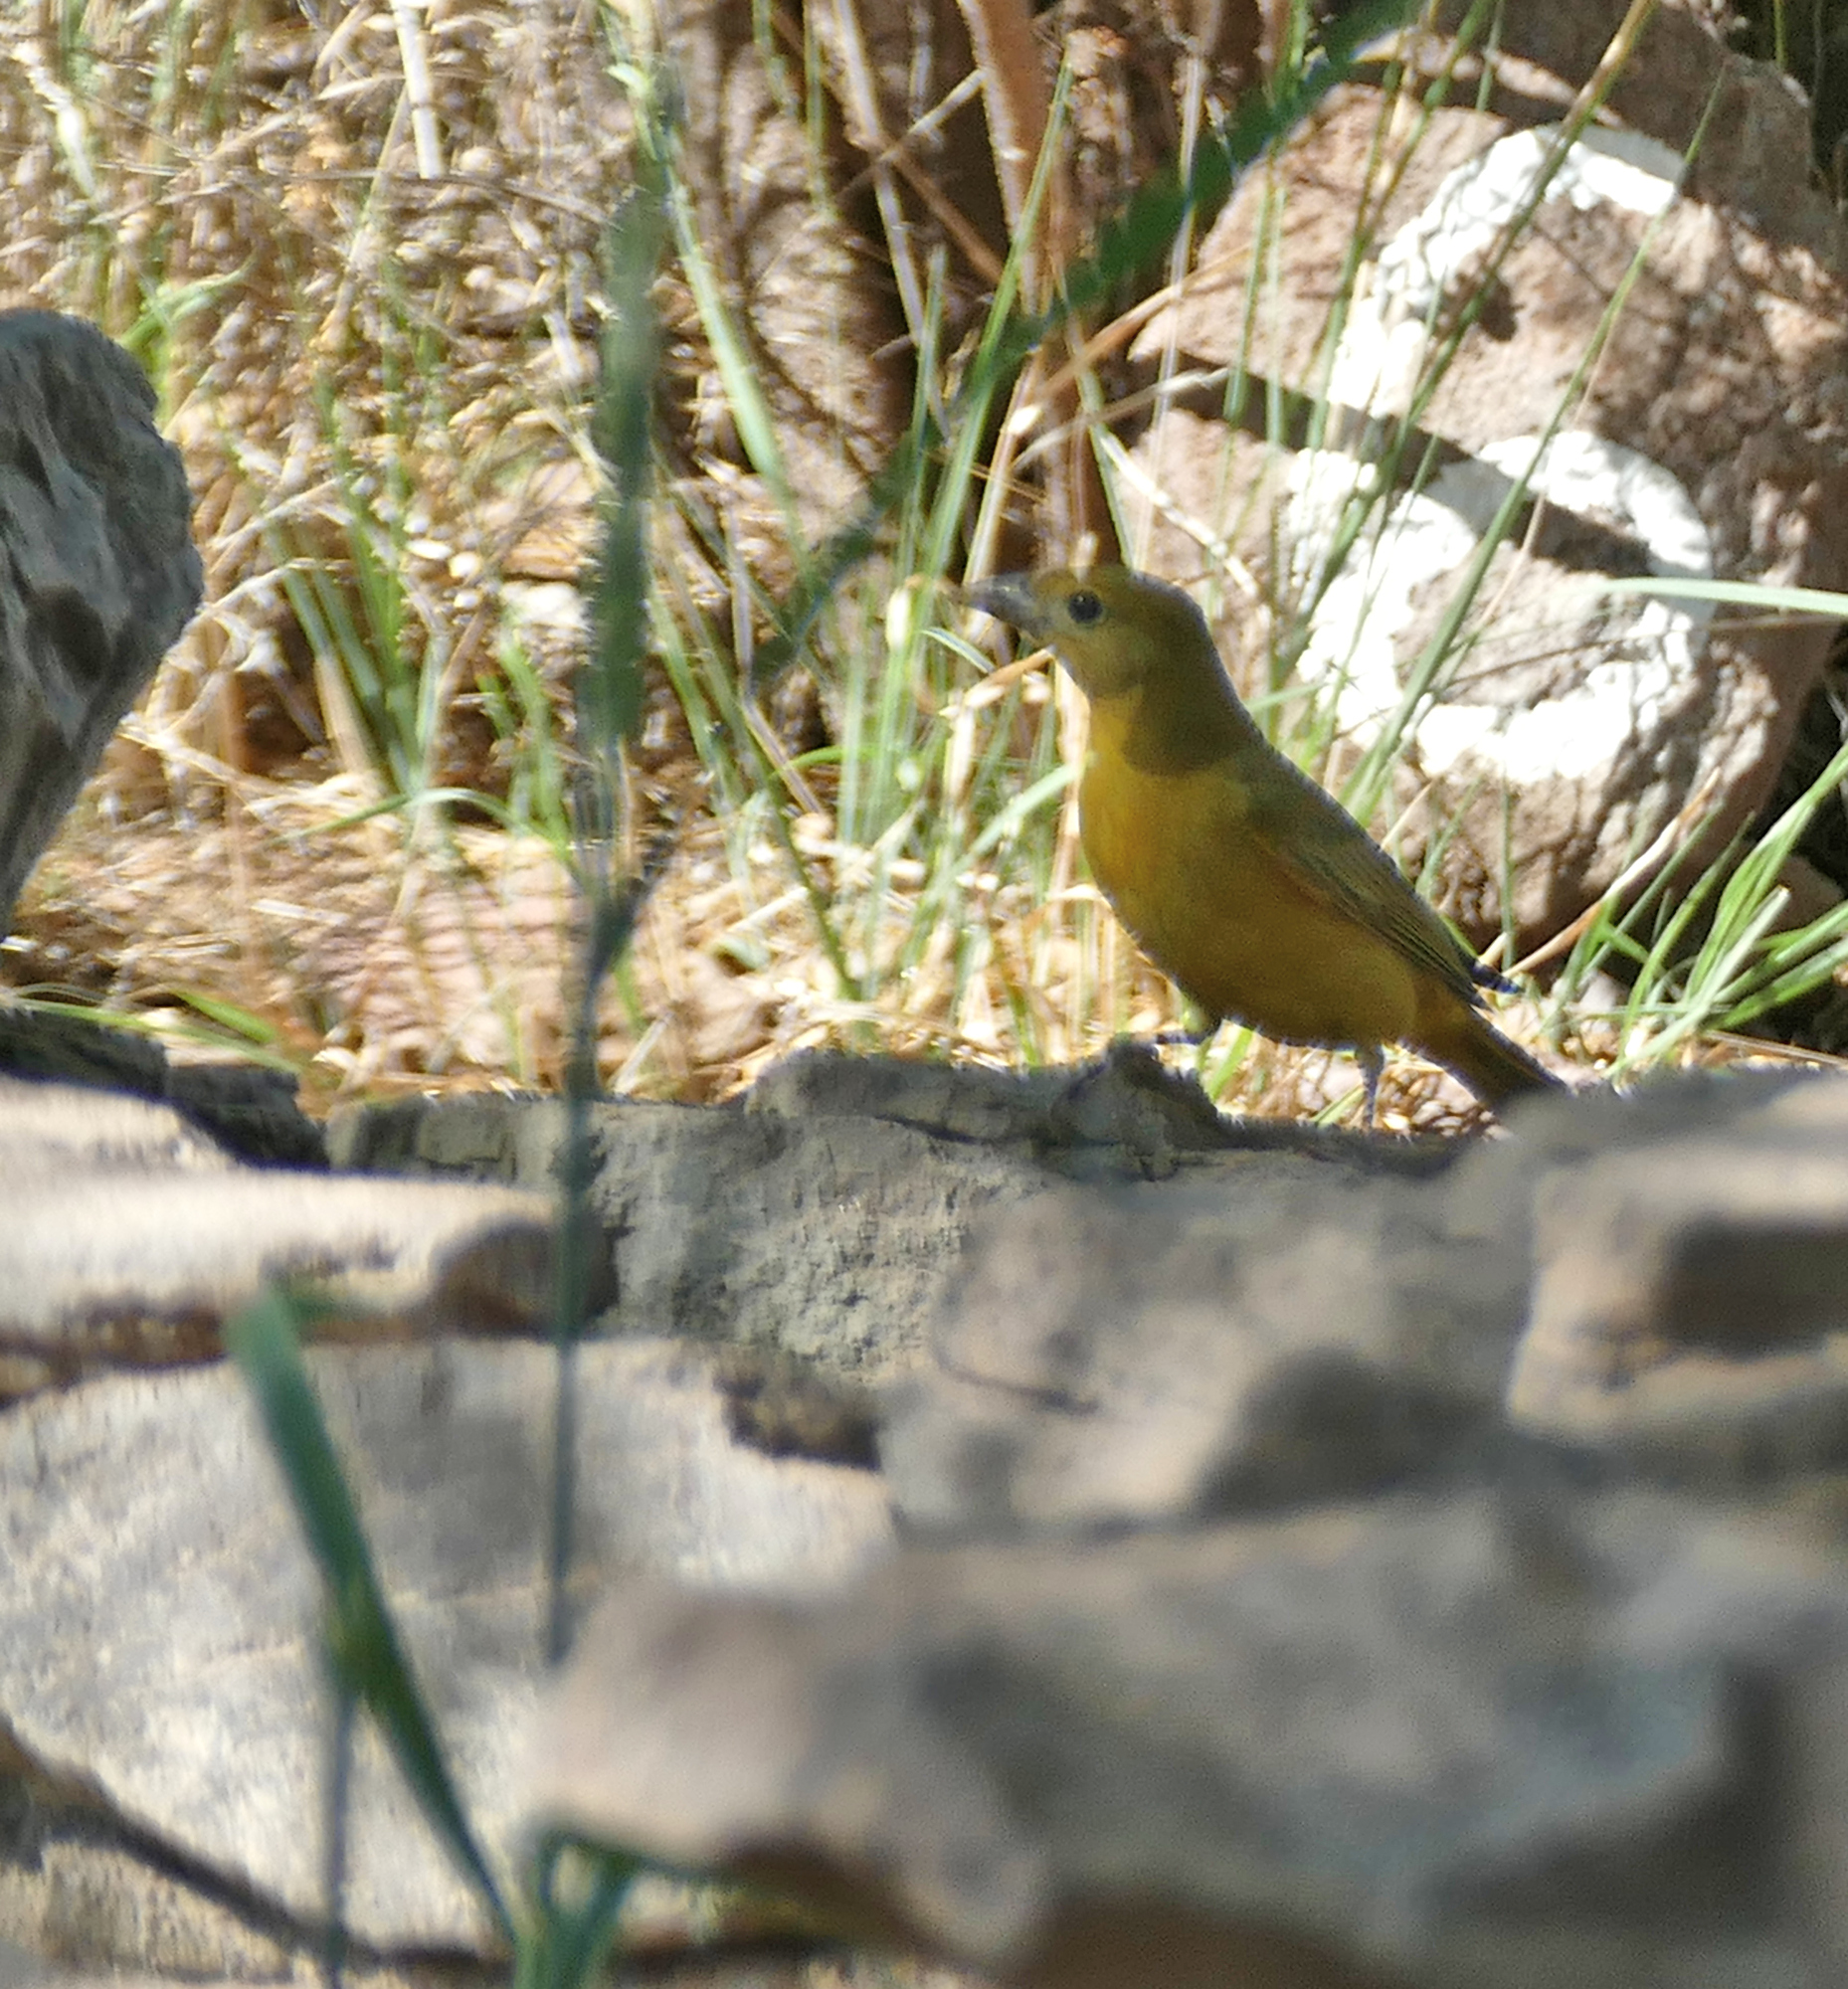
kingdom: Animalia
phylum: Chordata
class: Aves
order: Passeriformes
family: Cardinalidae
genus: Piranga
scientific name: Piranga rubra
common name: Summer tanager
